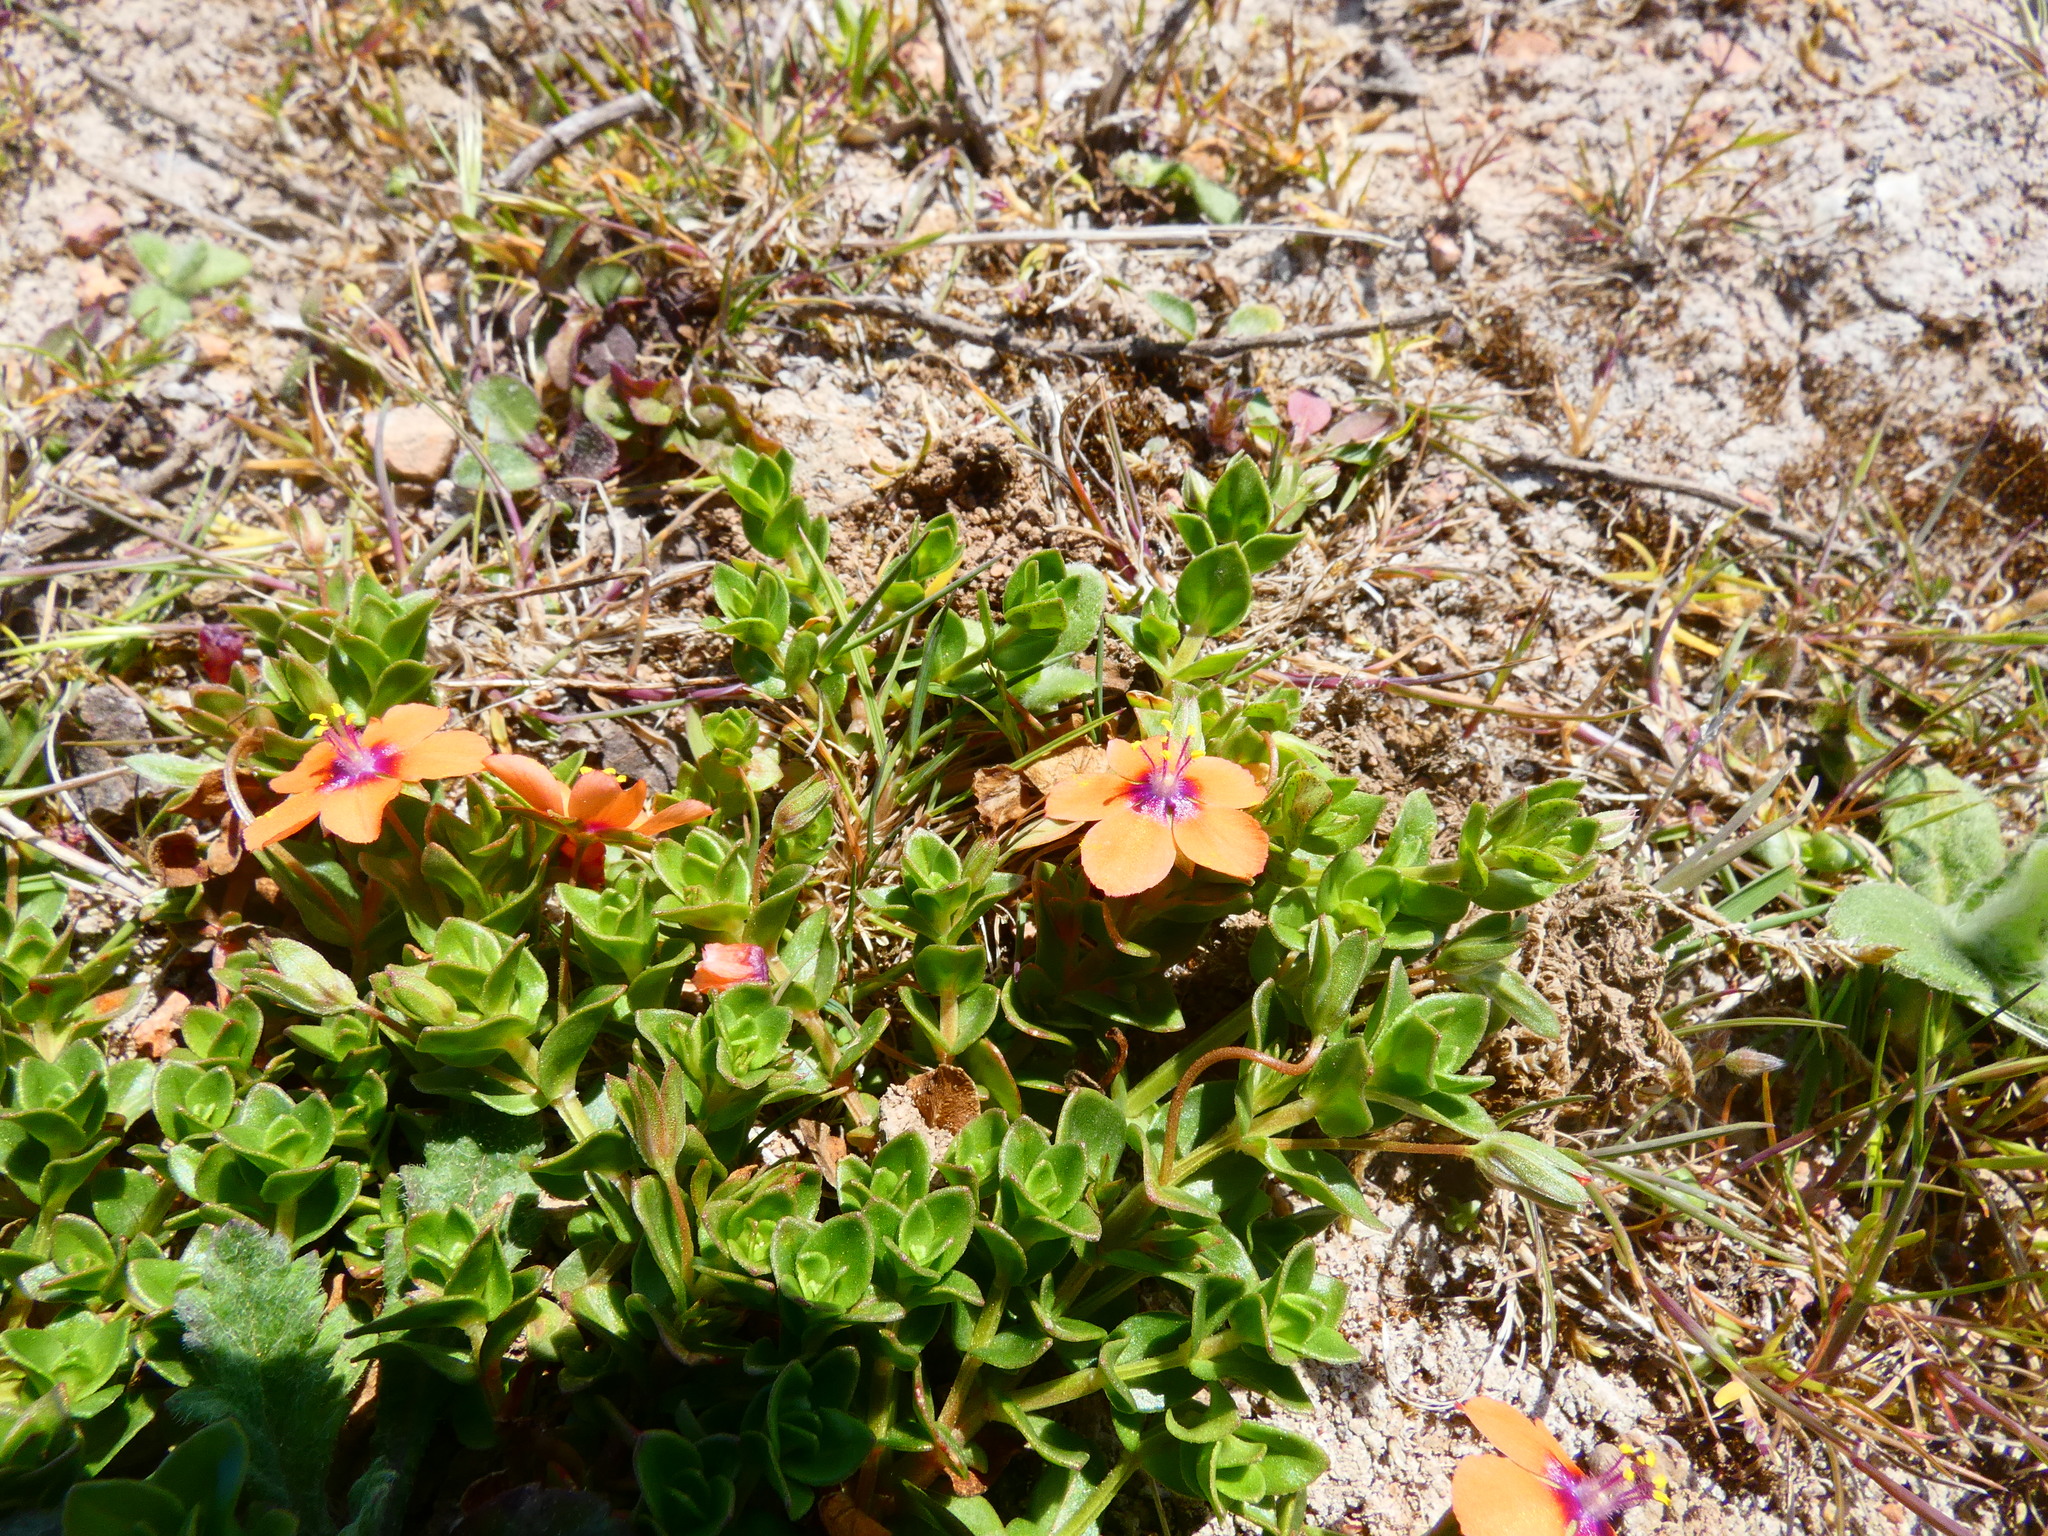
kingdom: Plantae
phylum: Tracheophyta
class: Magnoliopsida
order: Ericales
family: Primulaceae
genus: Lysimachia
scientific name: Lysimachia arvensis
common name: Scarlet pimpernel
